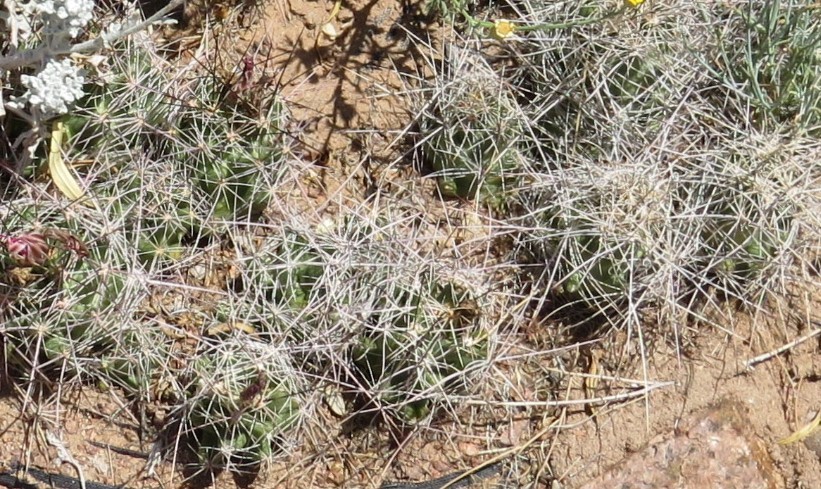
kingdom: Plantae
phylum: Tracheophyta
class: Magnoliopsida
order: Caryophyllales
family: Cactaceae
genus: Coryphantha
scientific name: Coryphantha macromeris
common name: Nipple beehive cactus
